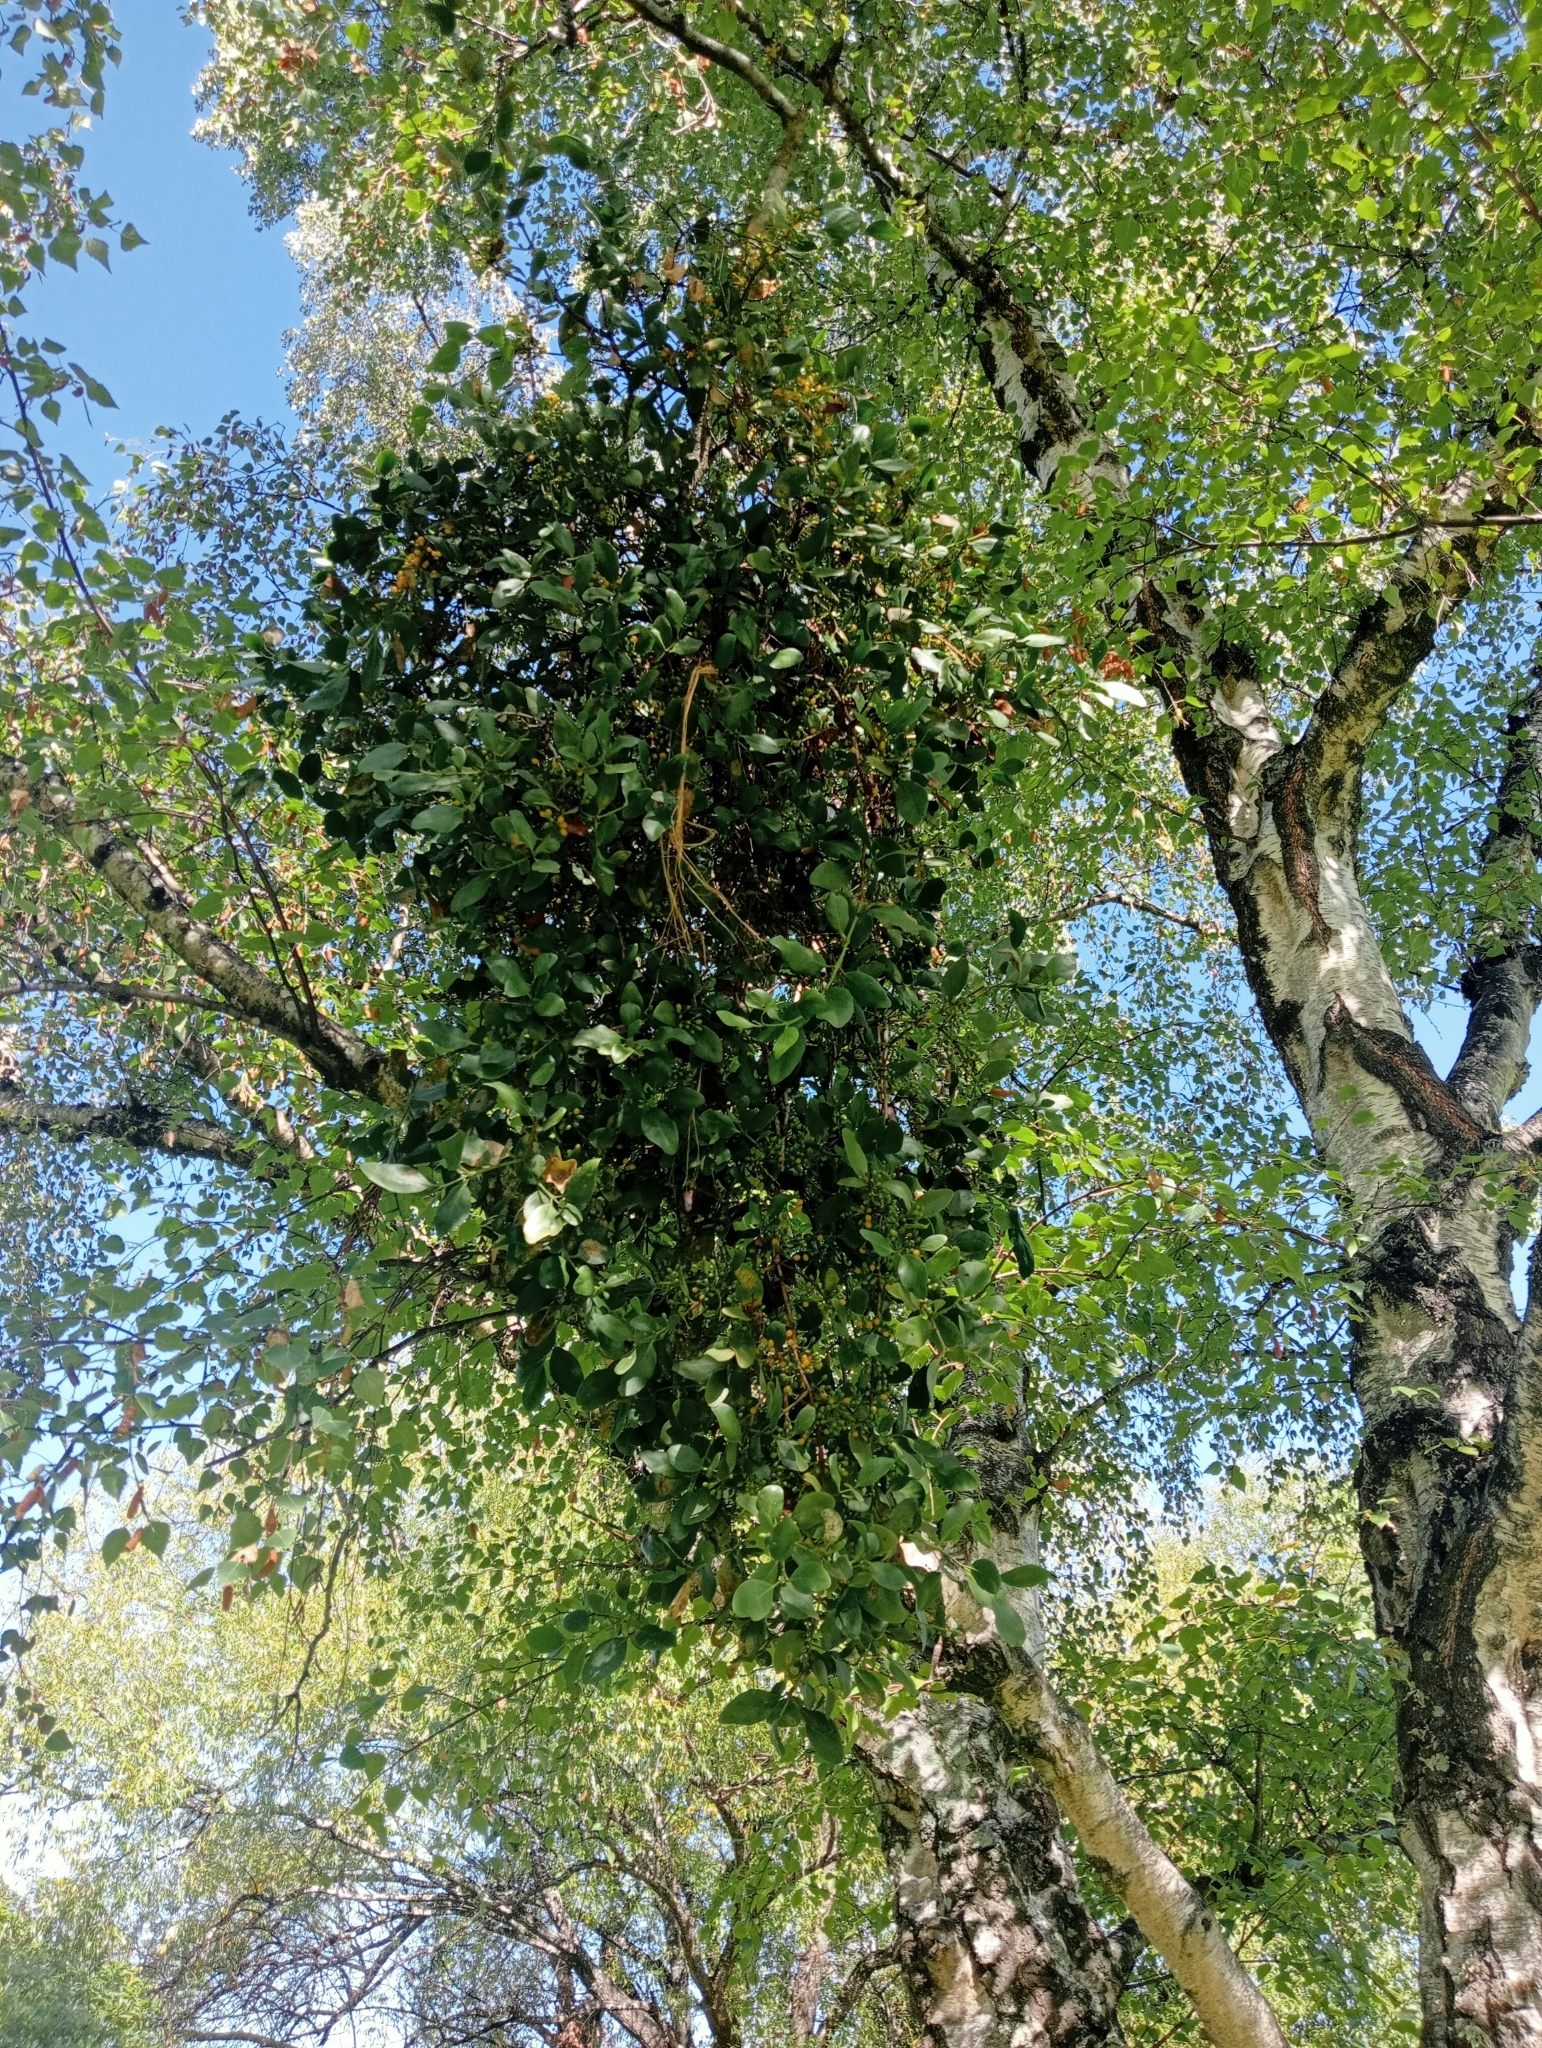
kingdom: Plantae
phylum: Tracheophyta
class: Magnoliopsida
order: Santalales
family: Loranthaceae
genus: Ileostylus
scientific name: Ileostylus micranthus
